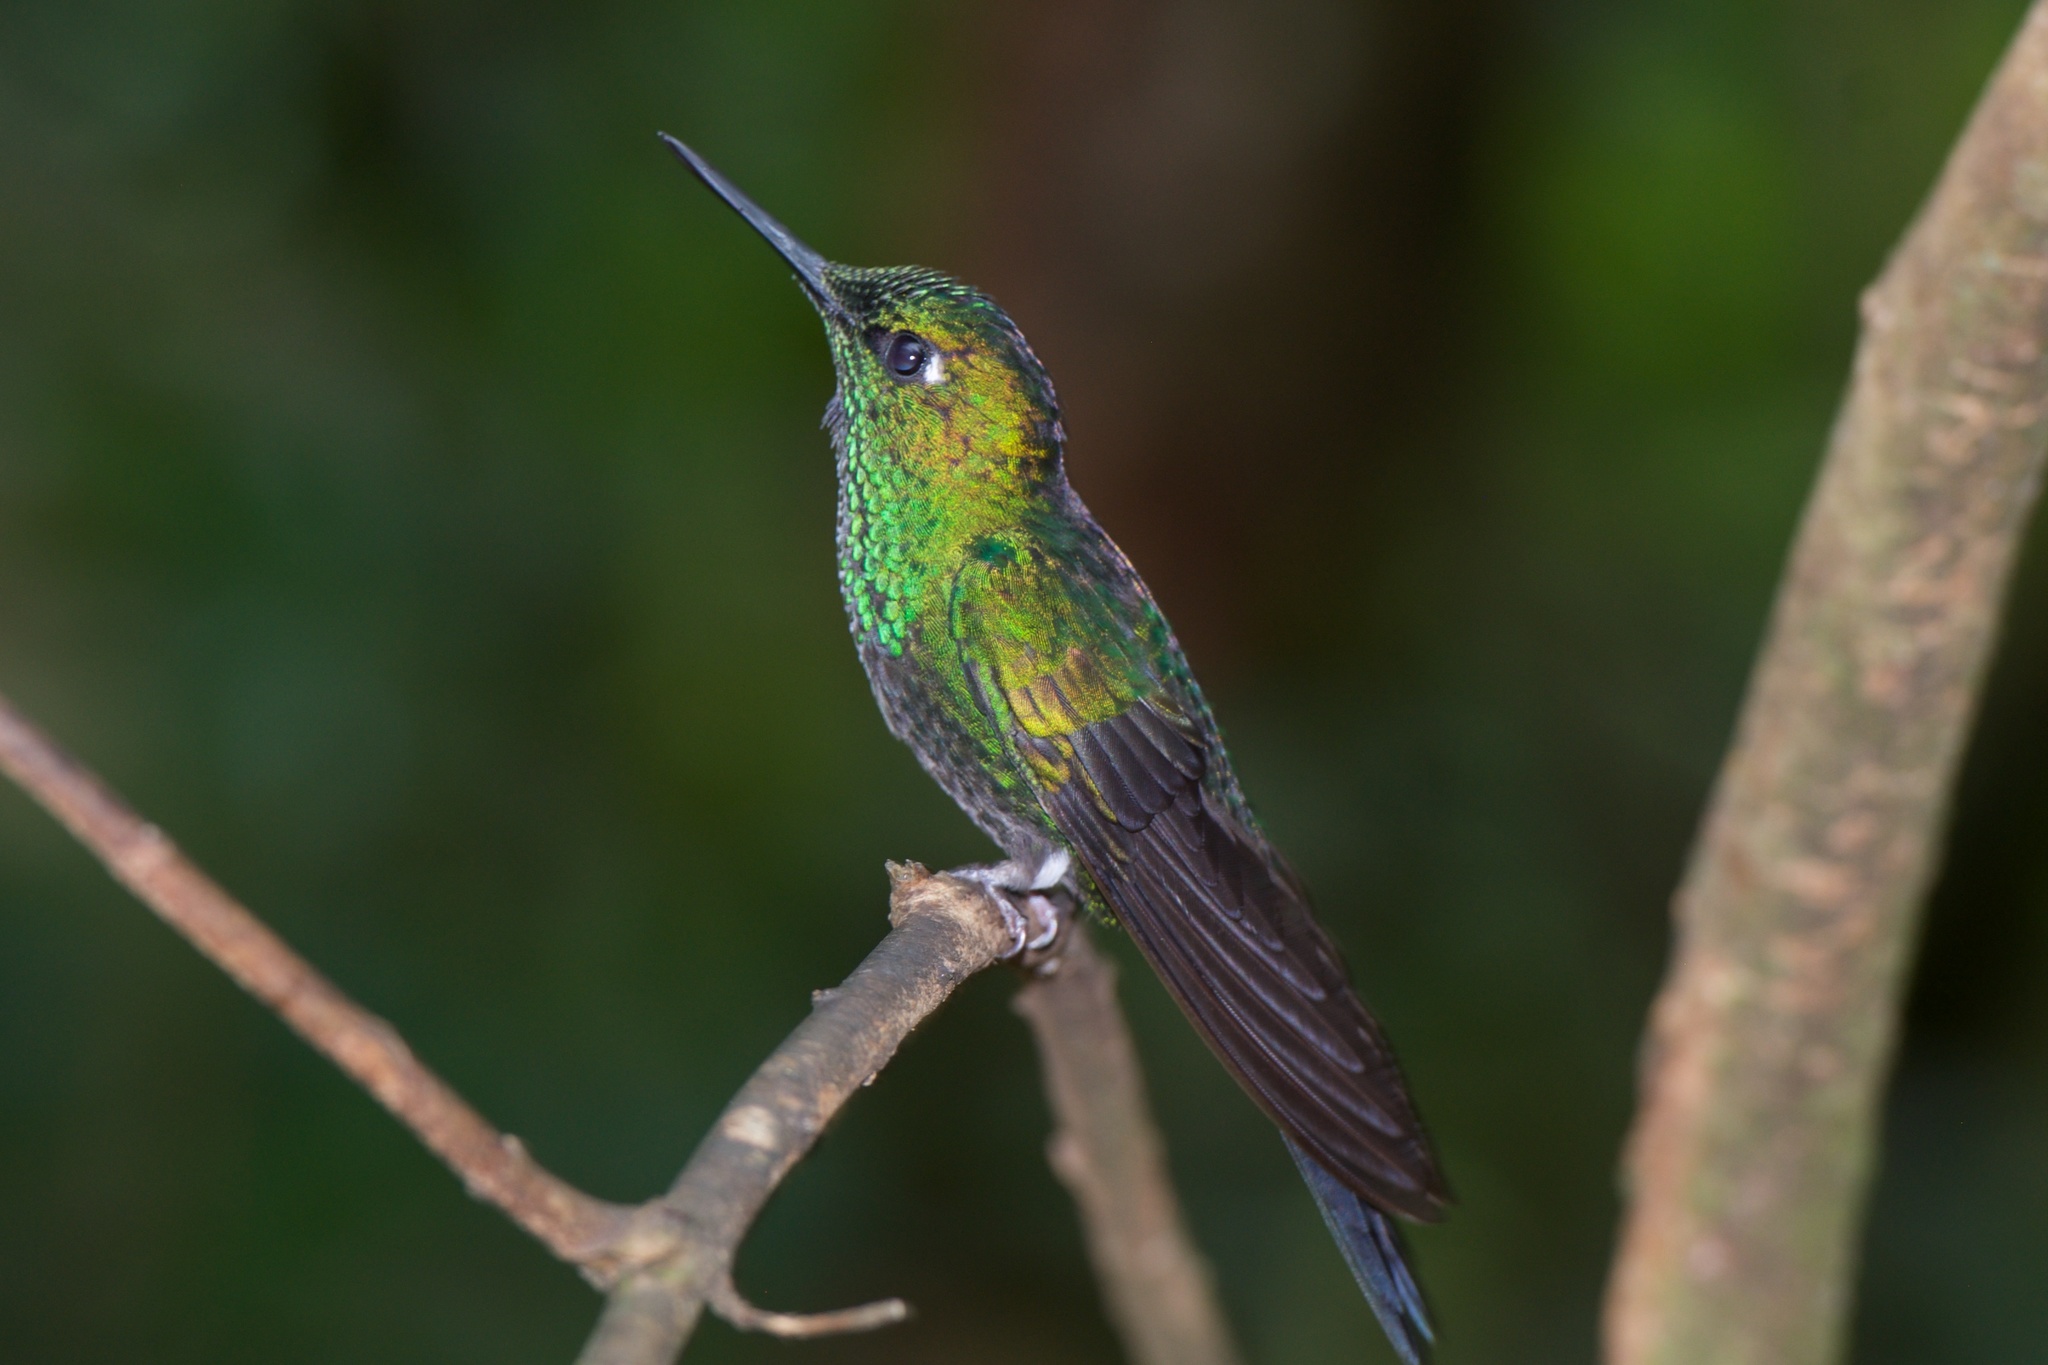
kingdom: Animalia
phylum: Chordata
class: Aves
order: Apodiformes
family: Trochilidae
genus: Heliodoxa
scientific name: Heliodoxa jacula
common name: Green-crowned brilliant
